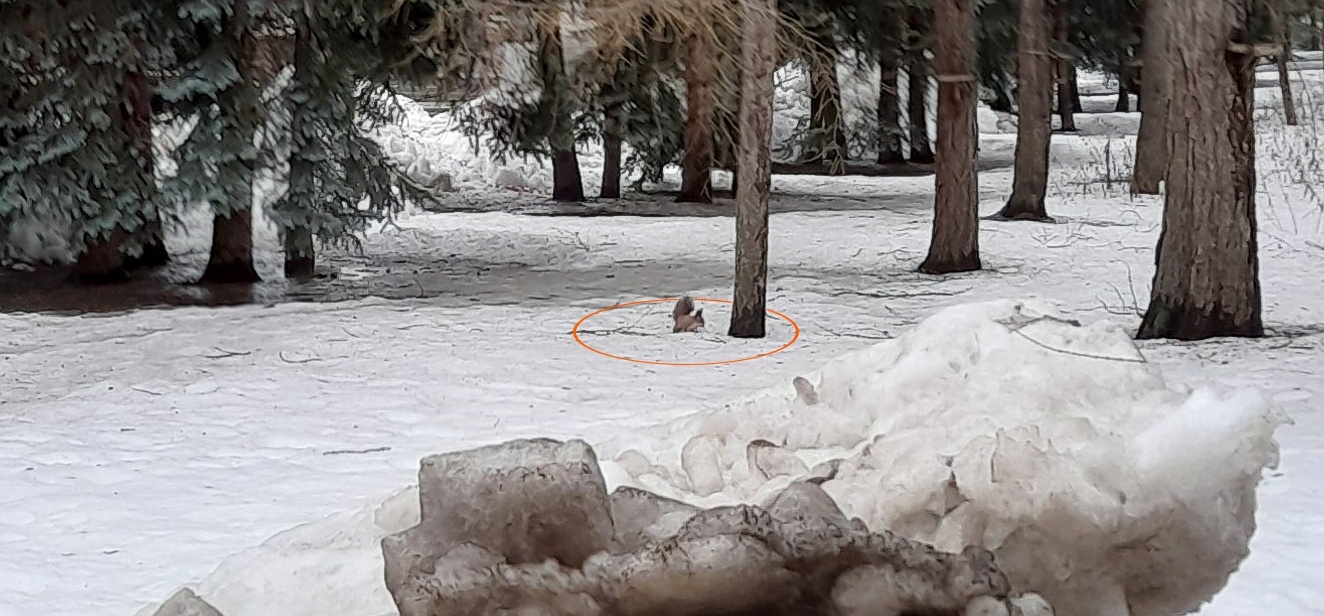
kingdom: Animalia
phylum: Chordata
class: Mammalia
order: Rodentia
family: Sciuridae
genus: Sciurus
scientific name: Sciurus vulgaris
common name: Eurasian red squirrel
